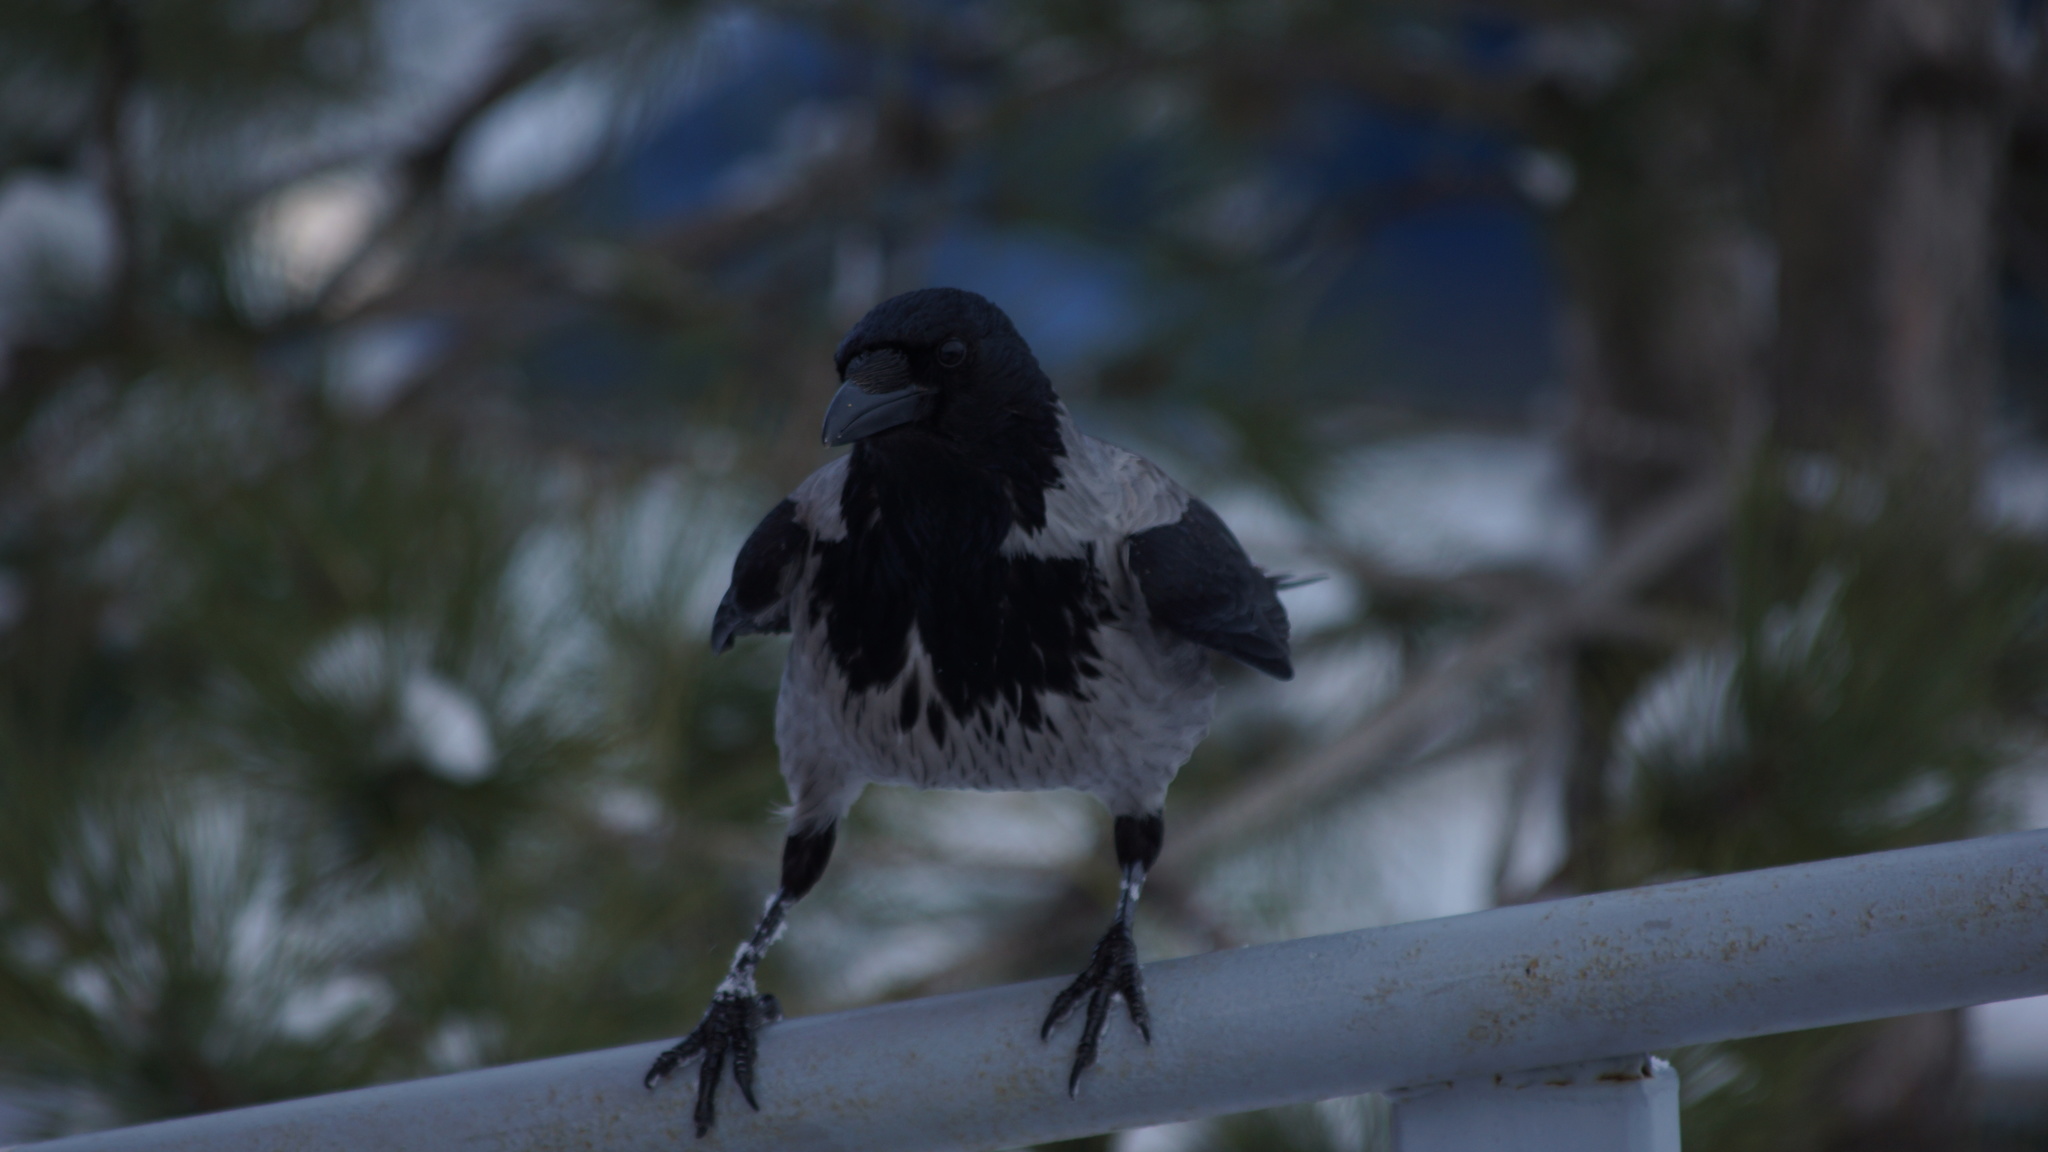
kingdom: Animalia
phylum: Chordata
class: Aves
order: Passeriformes
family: Corvidae
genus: Corvus
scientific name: Corvus cornix
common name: Hooded crow
